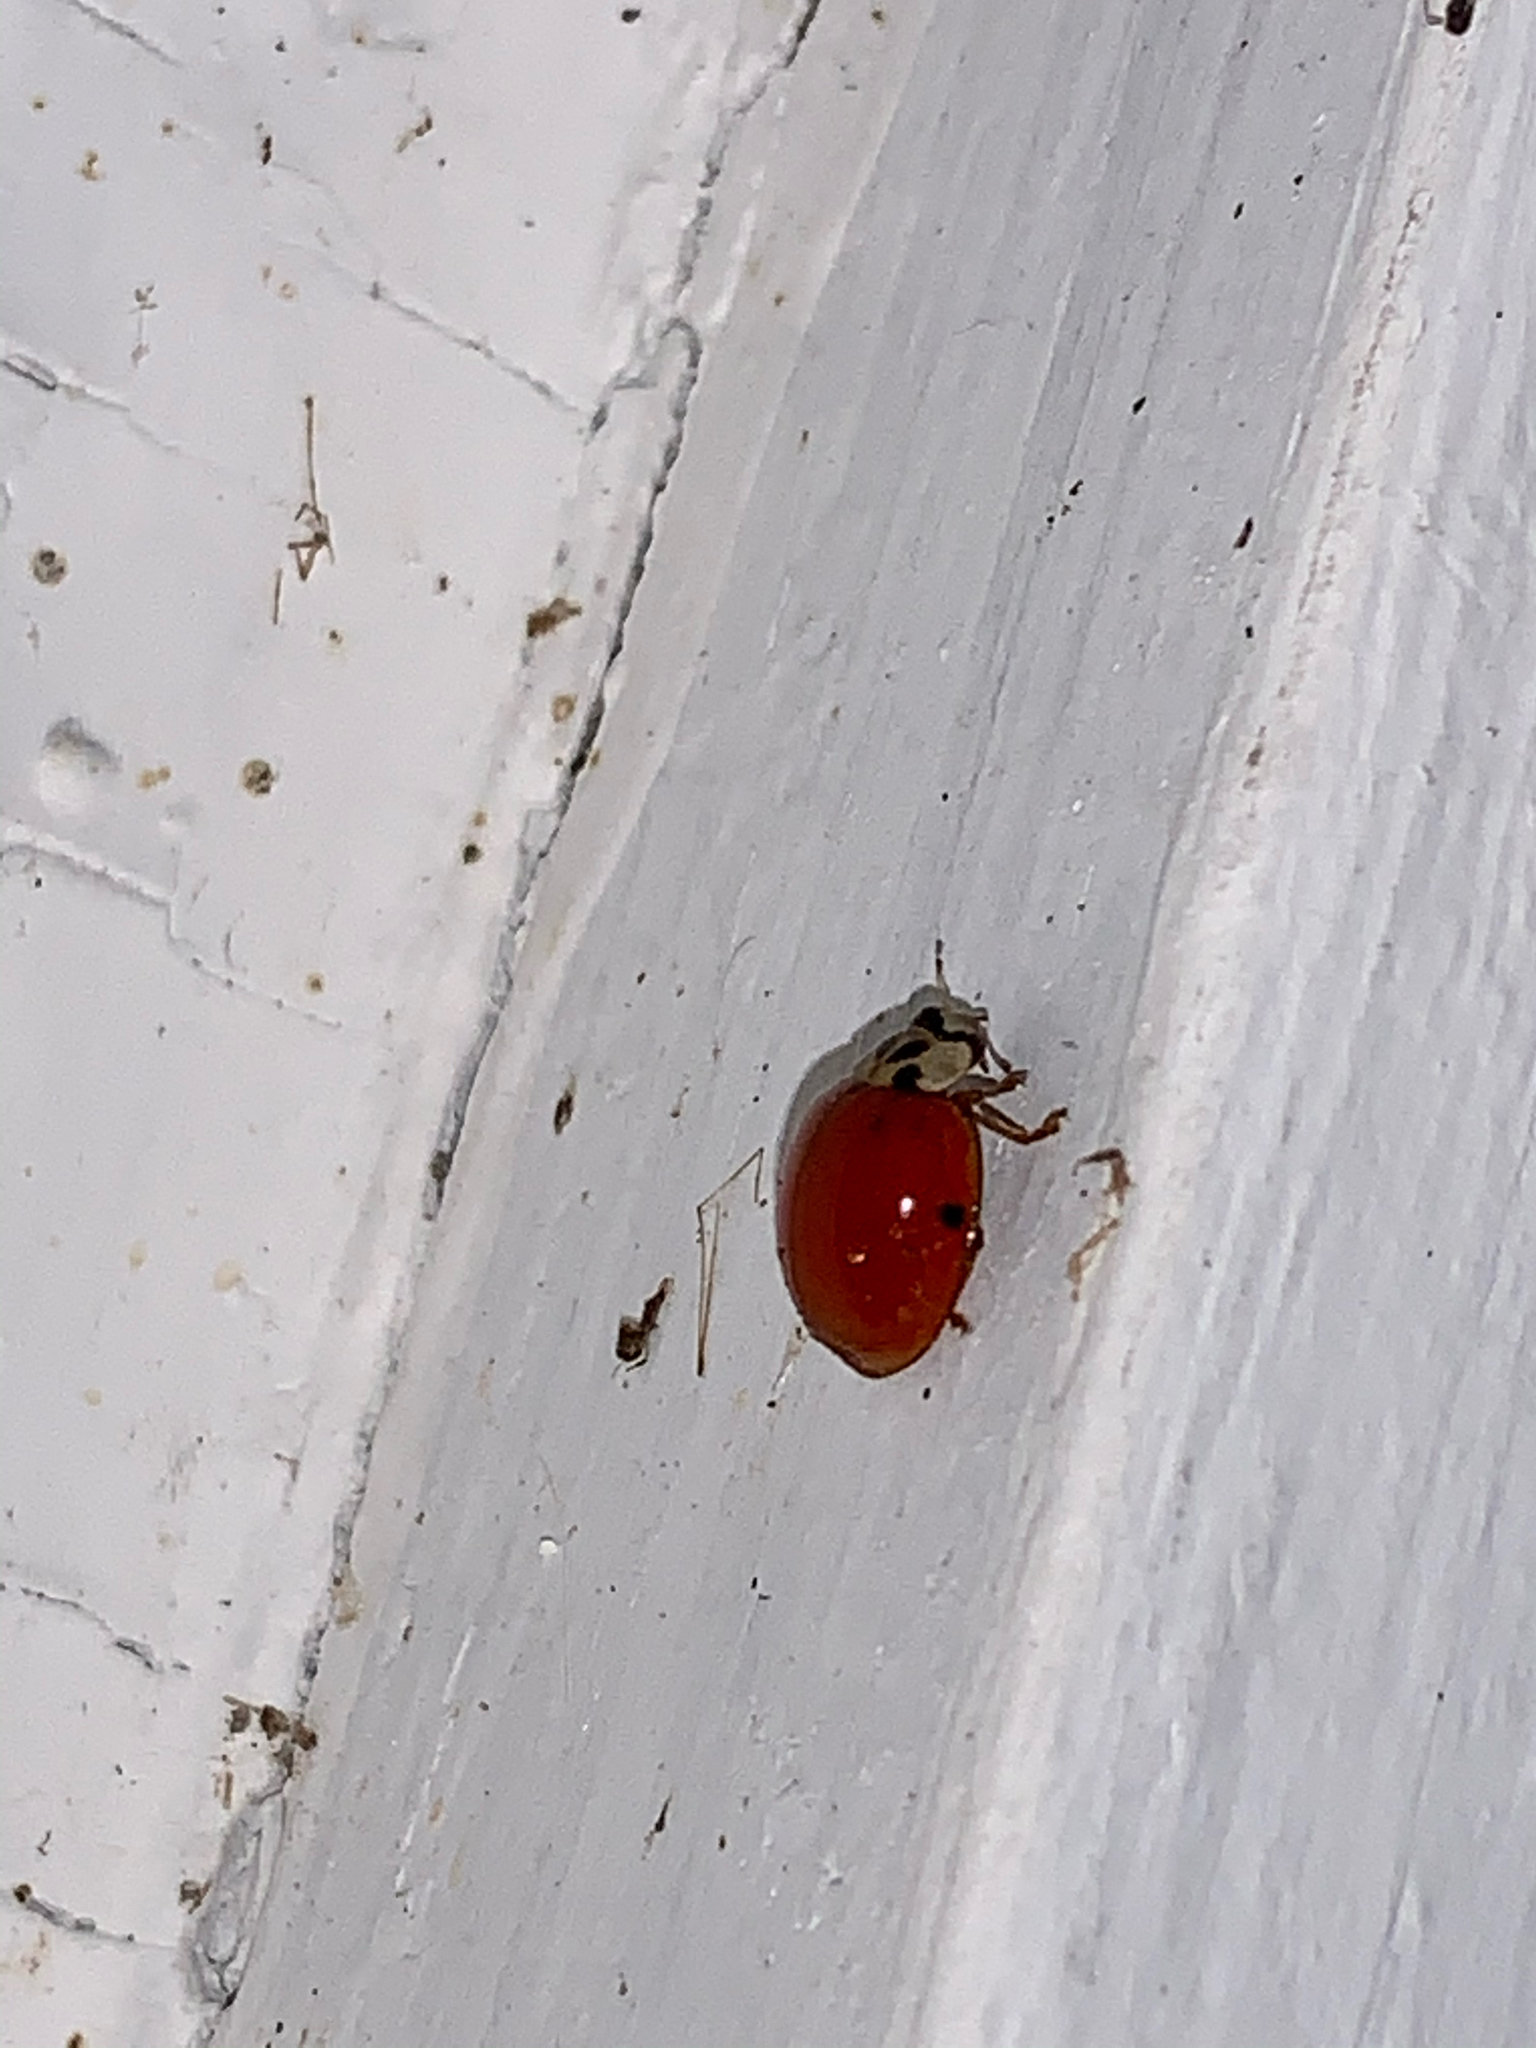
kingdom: Animalia
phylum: Arthropoda
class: Insecta
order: Coleoptera
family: Coccinellidae
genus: Harmonia
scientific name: Harmonia axyridis
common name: Harlequin ladybird
